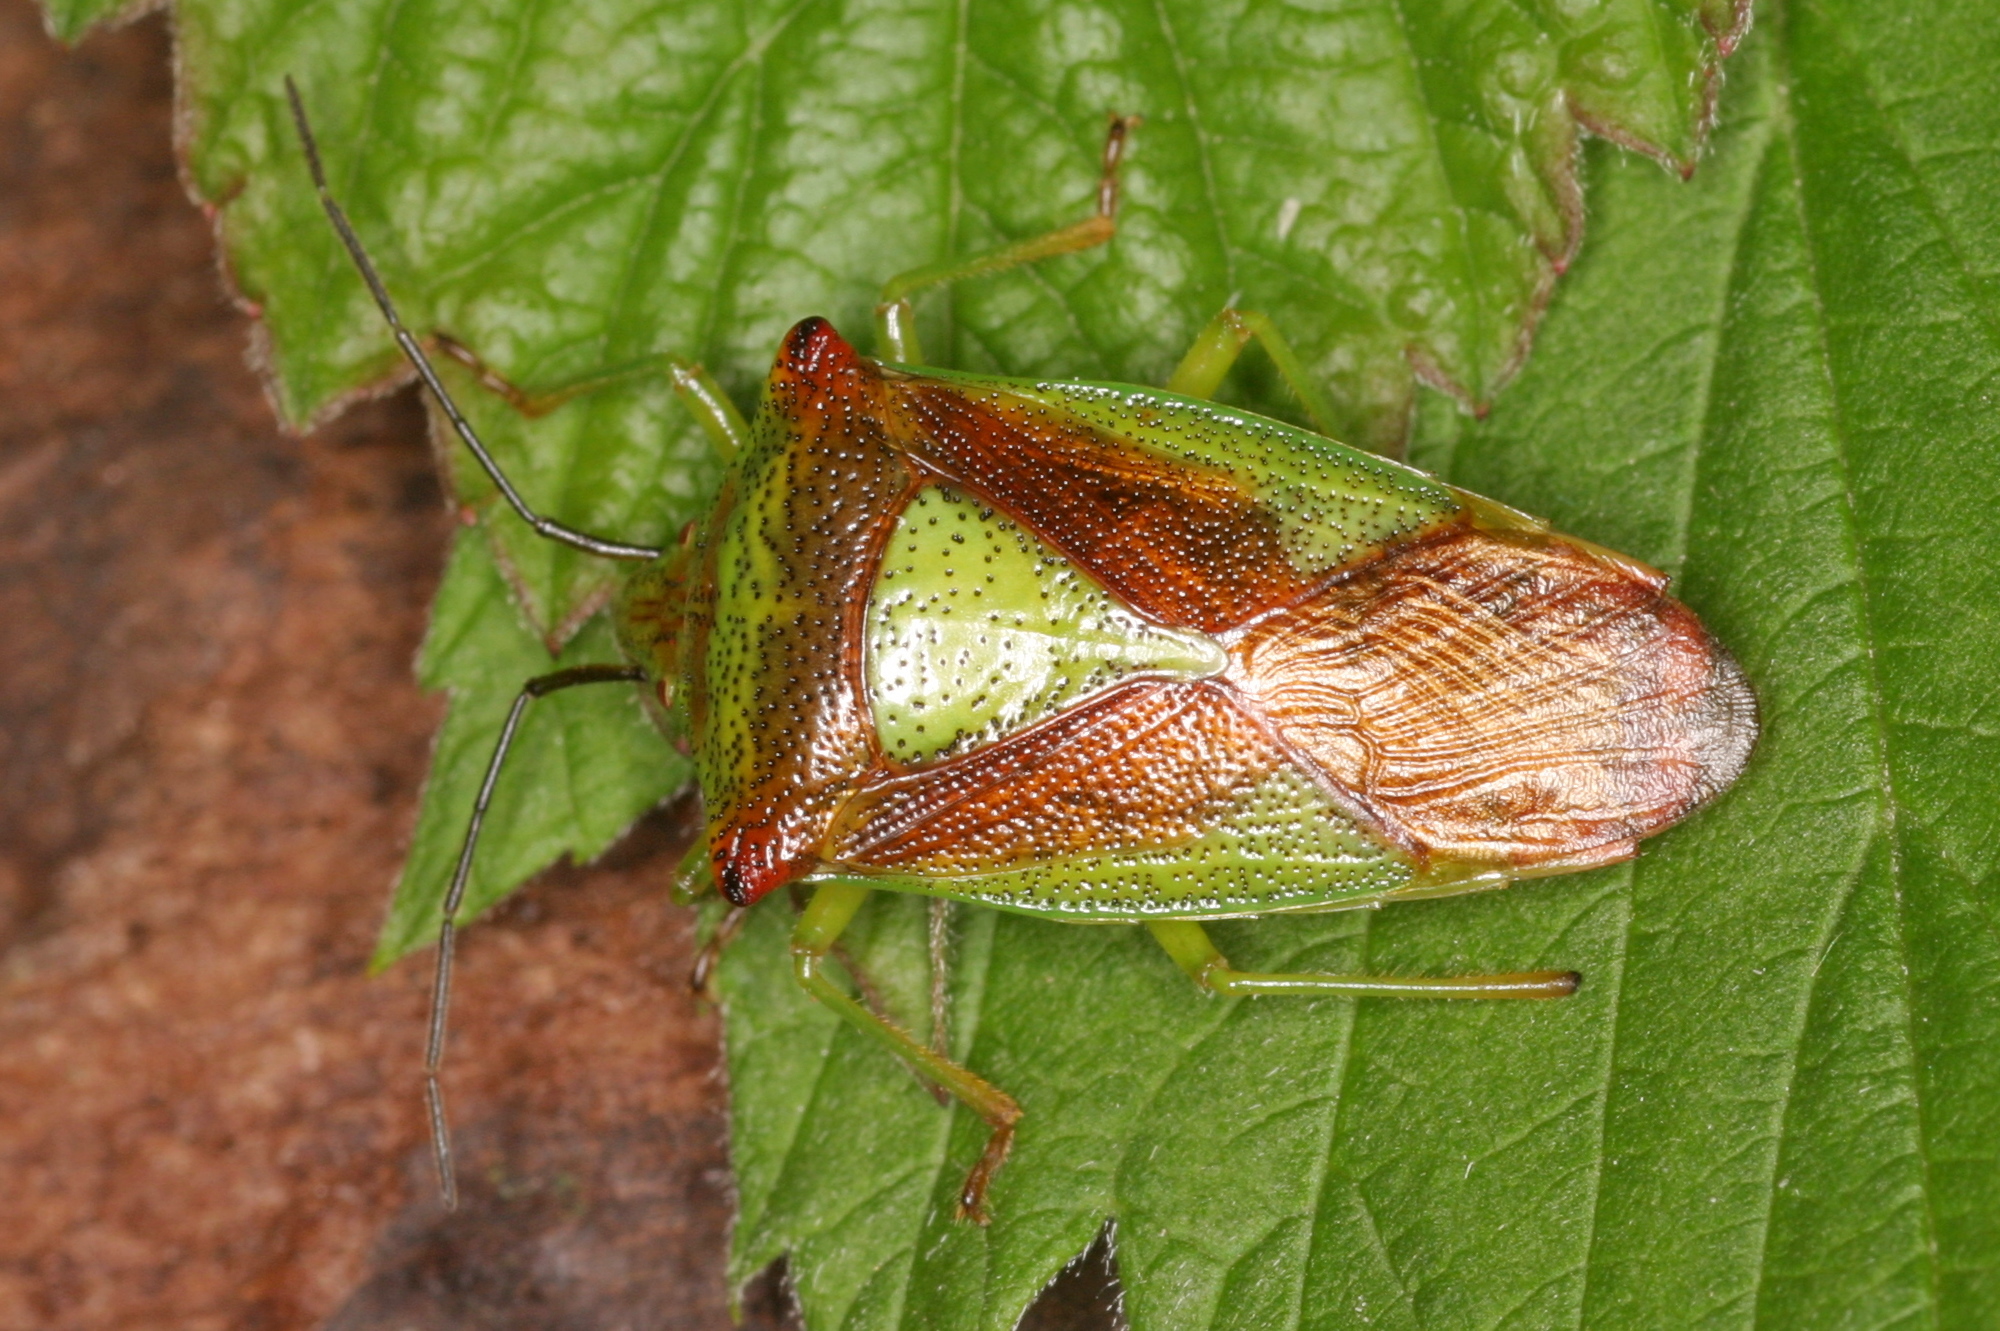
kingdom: Animalia
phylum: Arthropoda
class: Insecta
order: Hemiptera
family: Acanthosomatidae
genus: Acanthosoma
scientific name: Acanthosoma haemorrhoidale
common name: Hawthorn shieldbug
